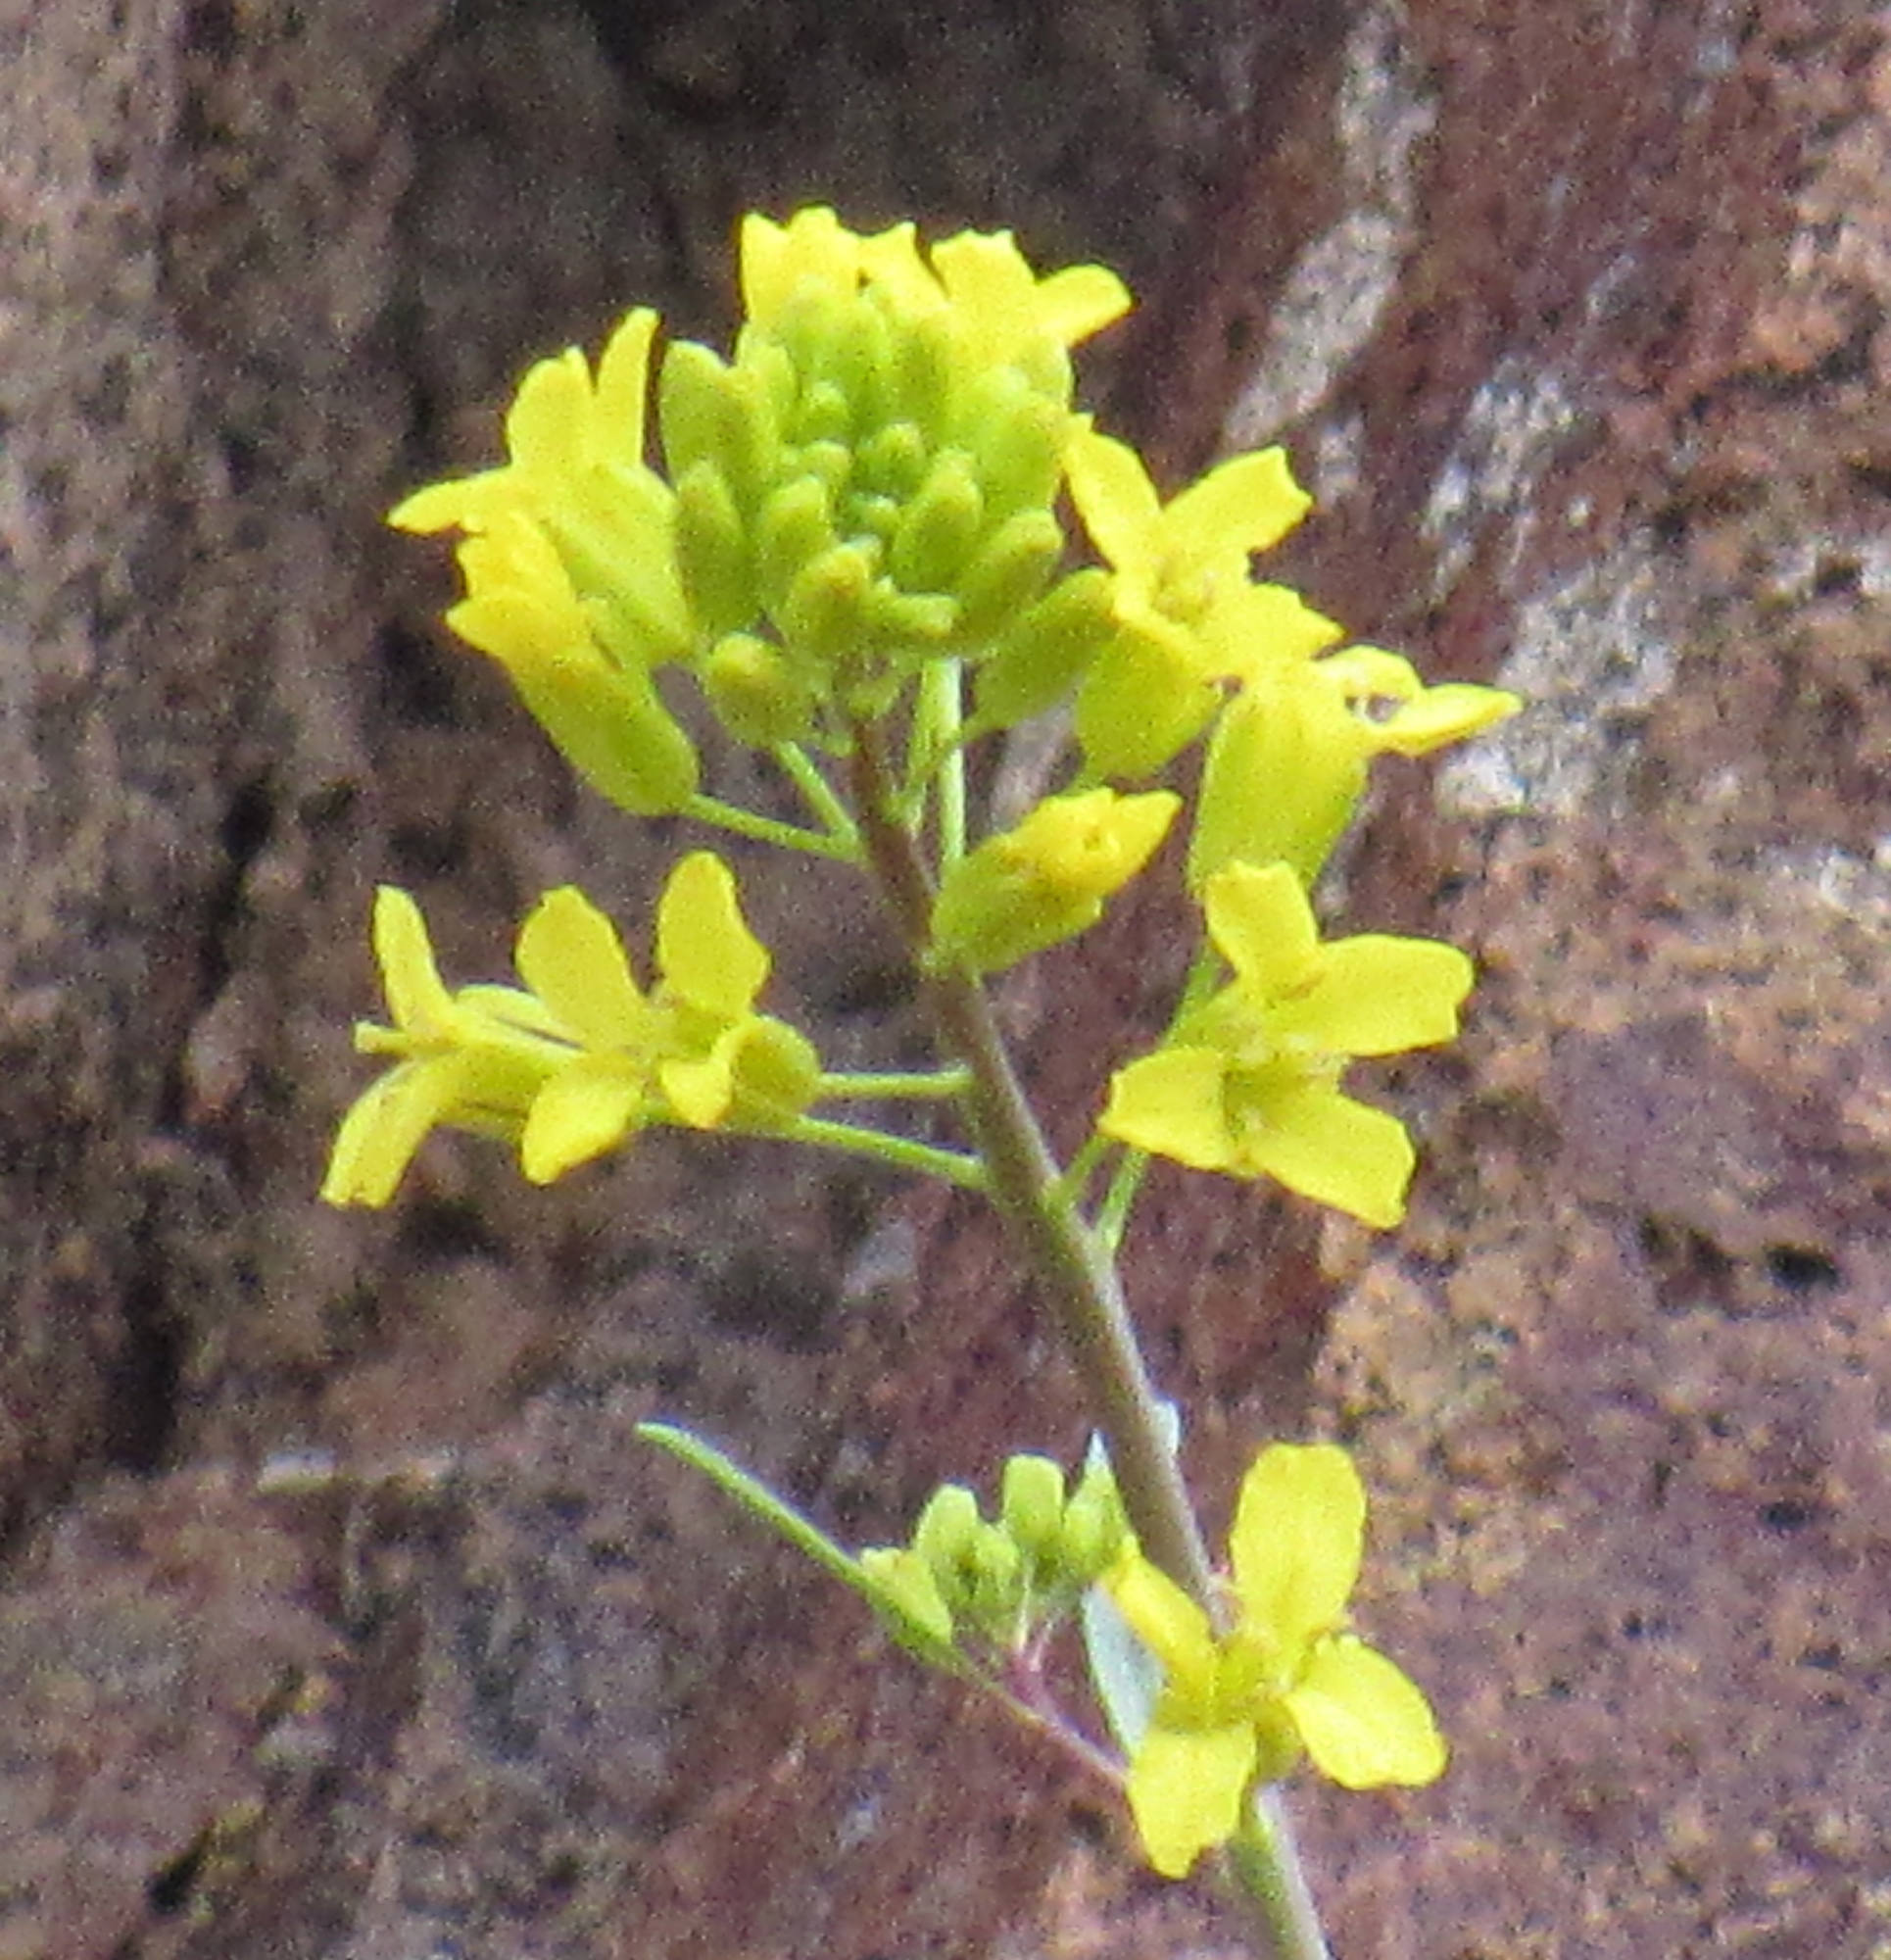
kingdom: Plantae
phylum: Tracheophyta
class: Magnoliopsida
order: Brassicales
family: Brassicaceae
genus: Sisymbrium
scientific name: Sisymbrium linifolium
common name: Salmon river plains mustard
